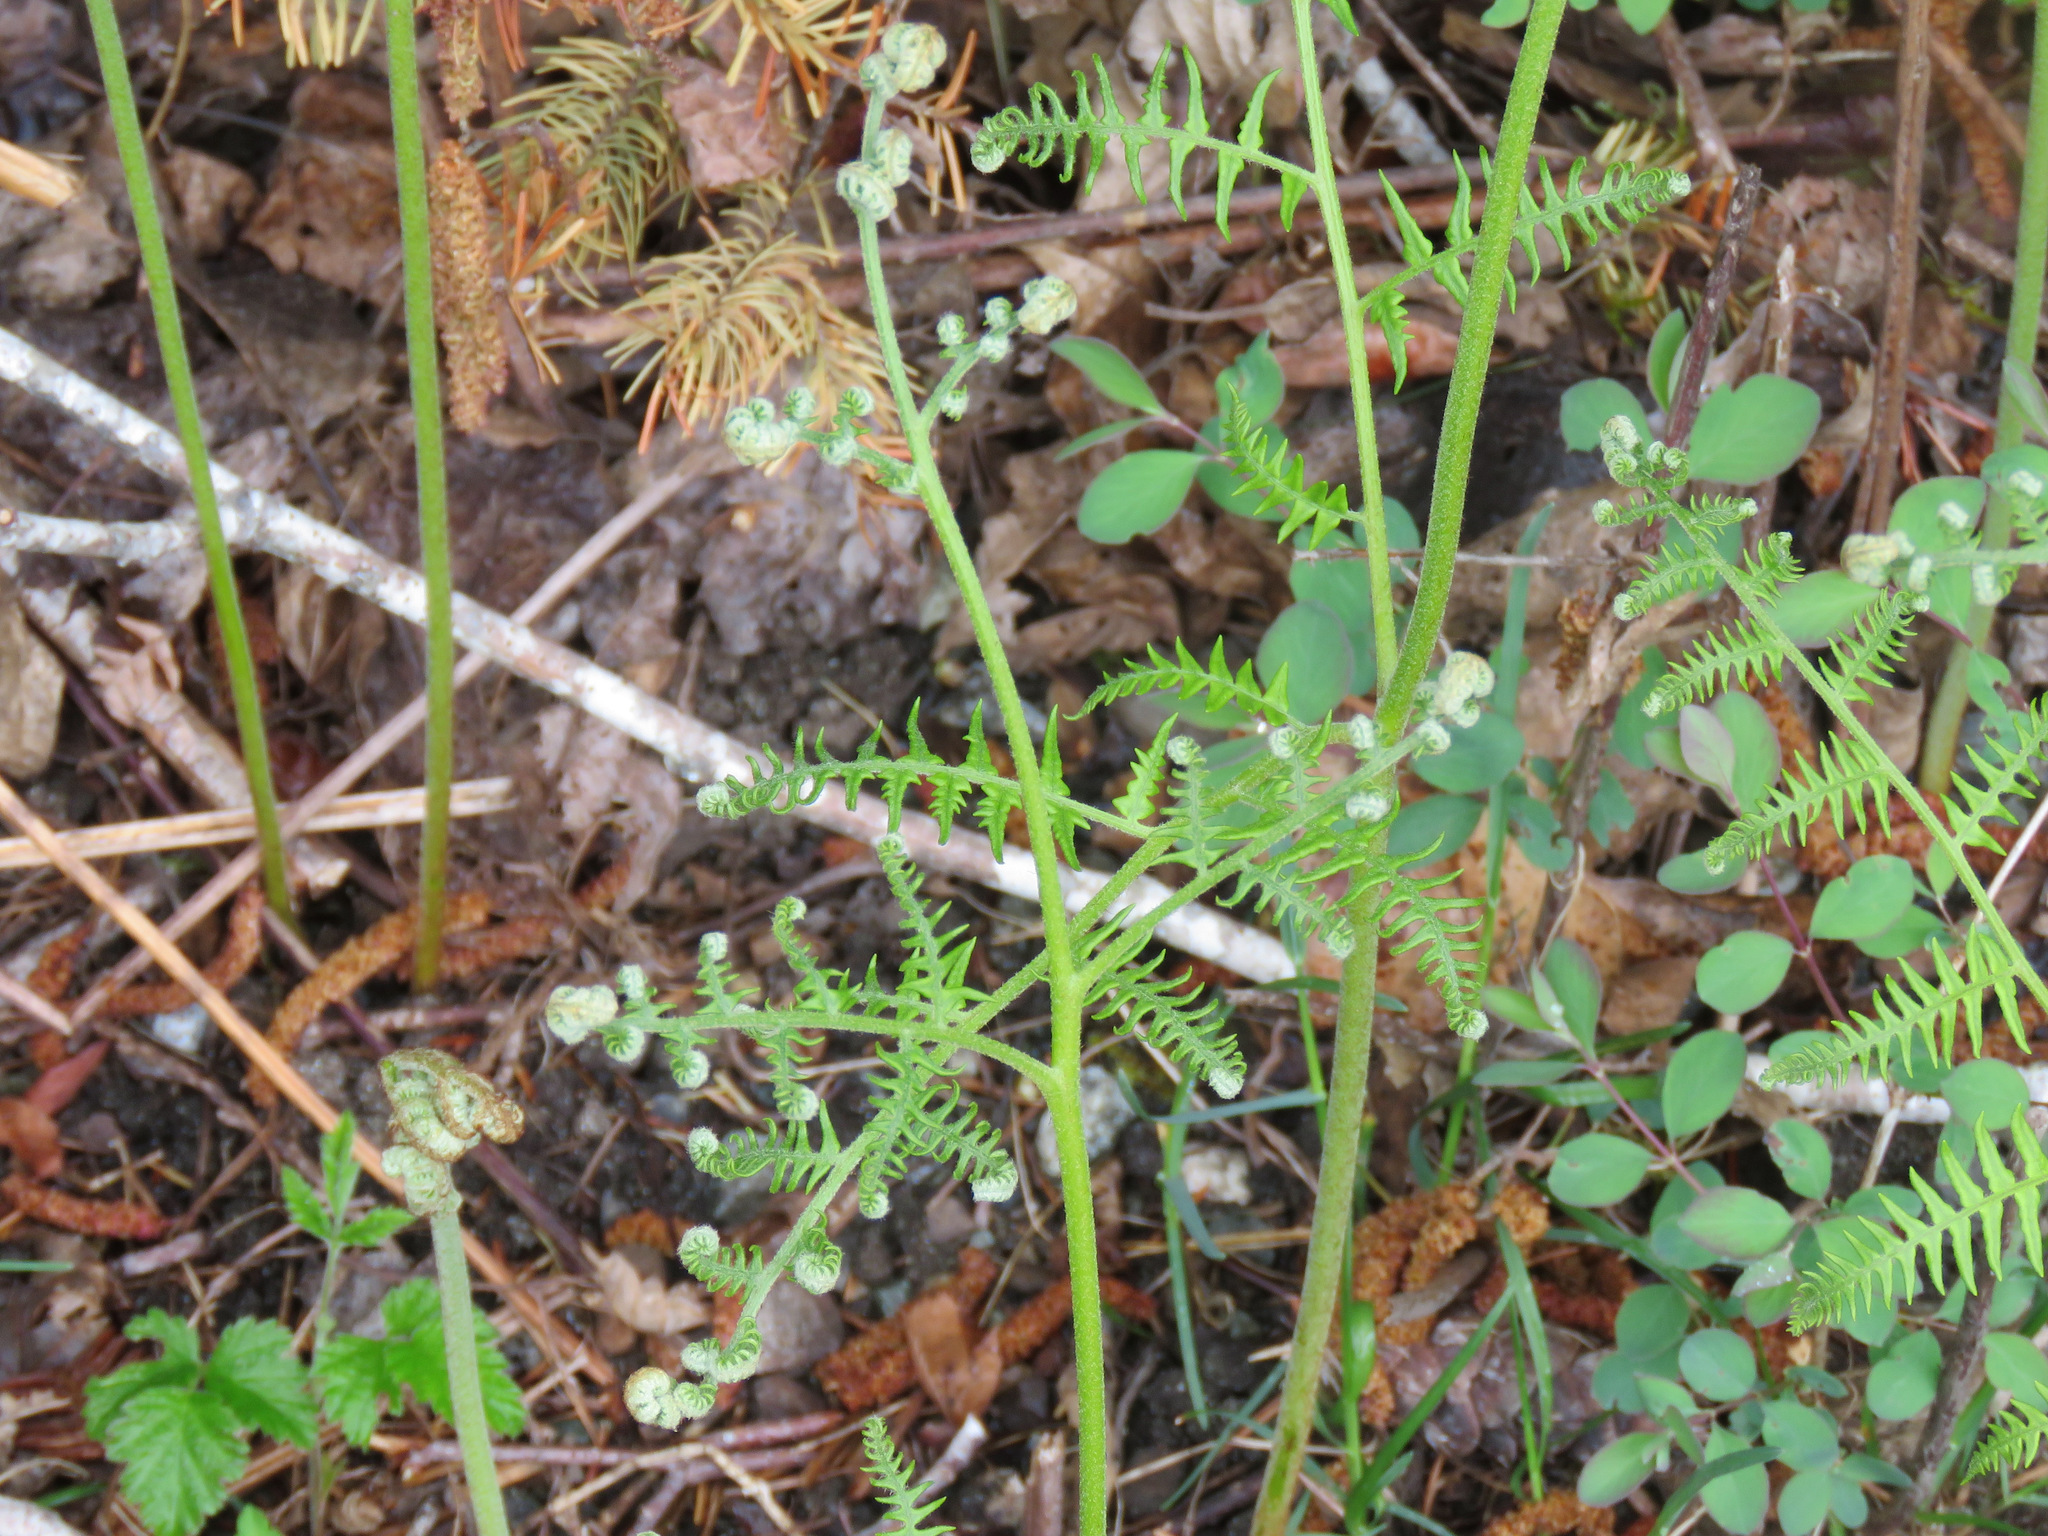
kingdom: Plantae
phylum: Tracheophyta
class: Polypodiopsida
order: Polypodiales
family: Dennstaedtiaceae
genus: Pteridium
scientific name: Pteridium aquilinum
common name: Bracken
